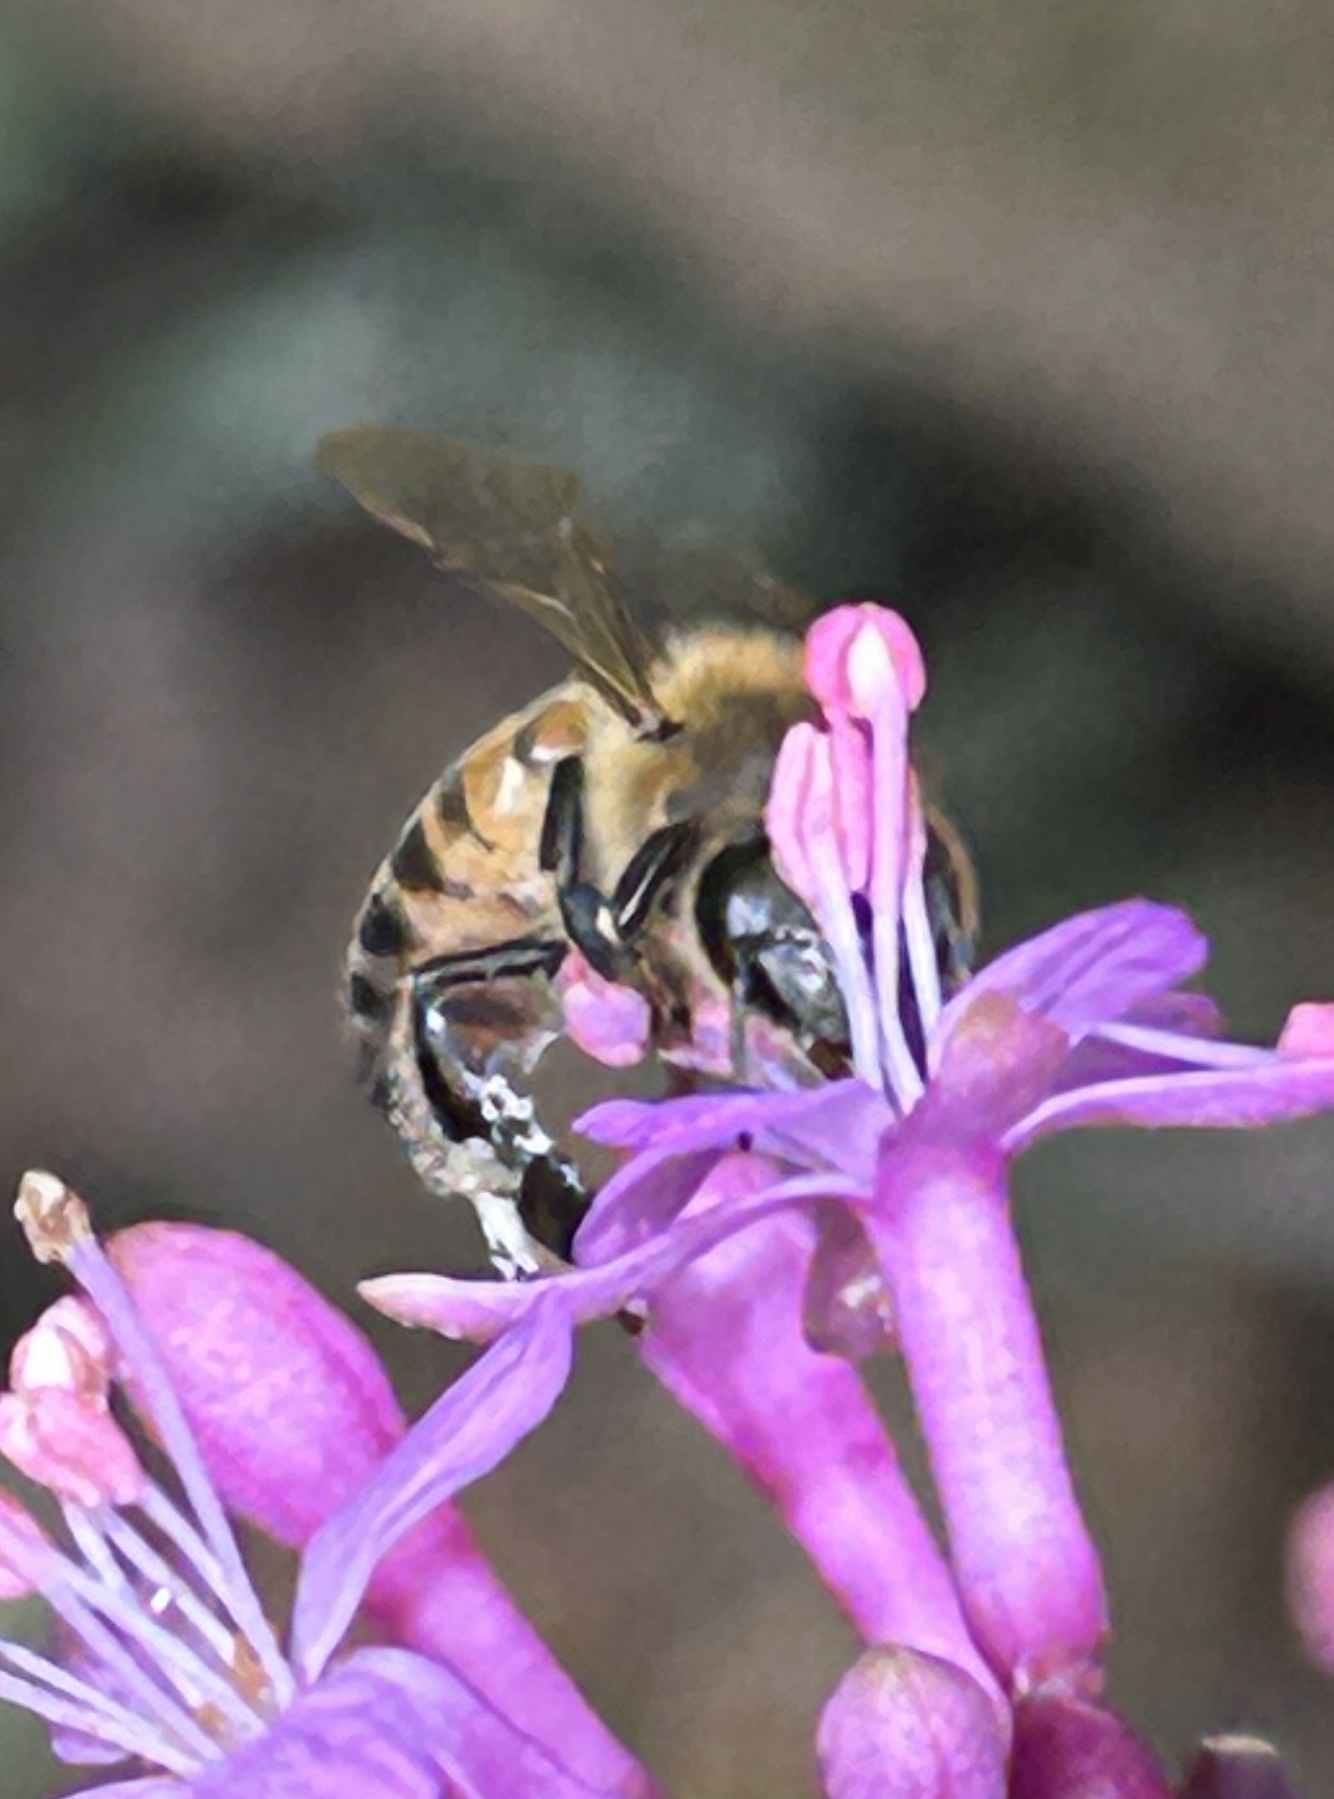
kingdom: Animalia
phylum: Arthropoda
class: Insecta
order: Hymenoptera
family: Apidae
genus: Apis
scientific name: Apis mellifera
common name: Honey bee
